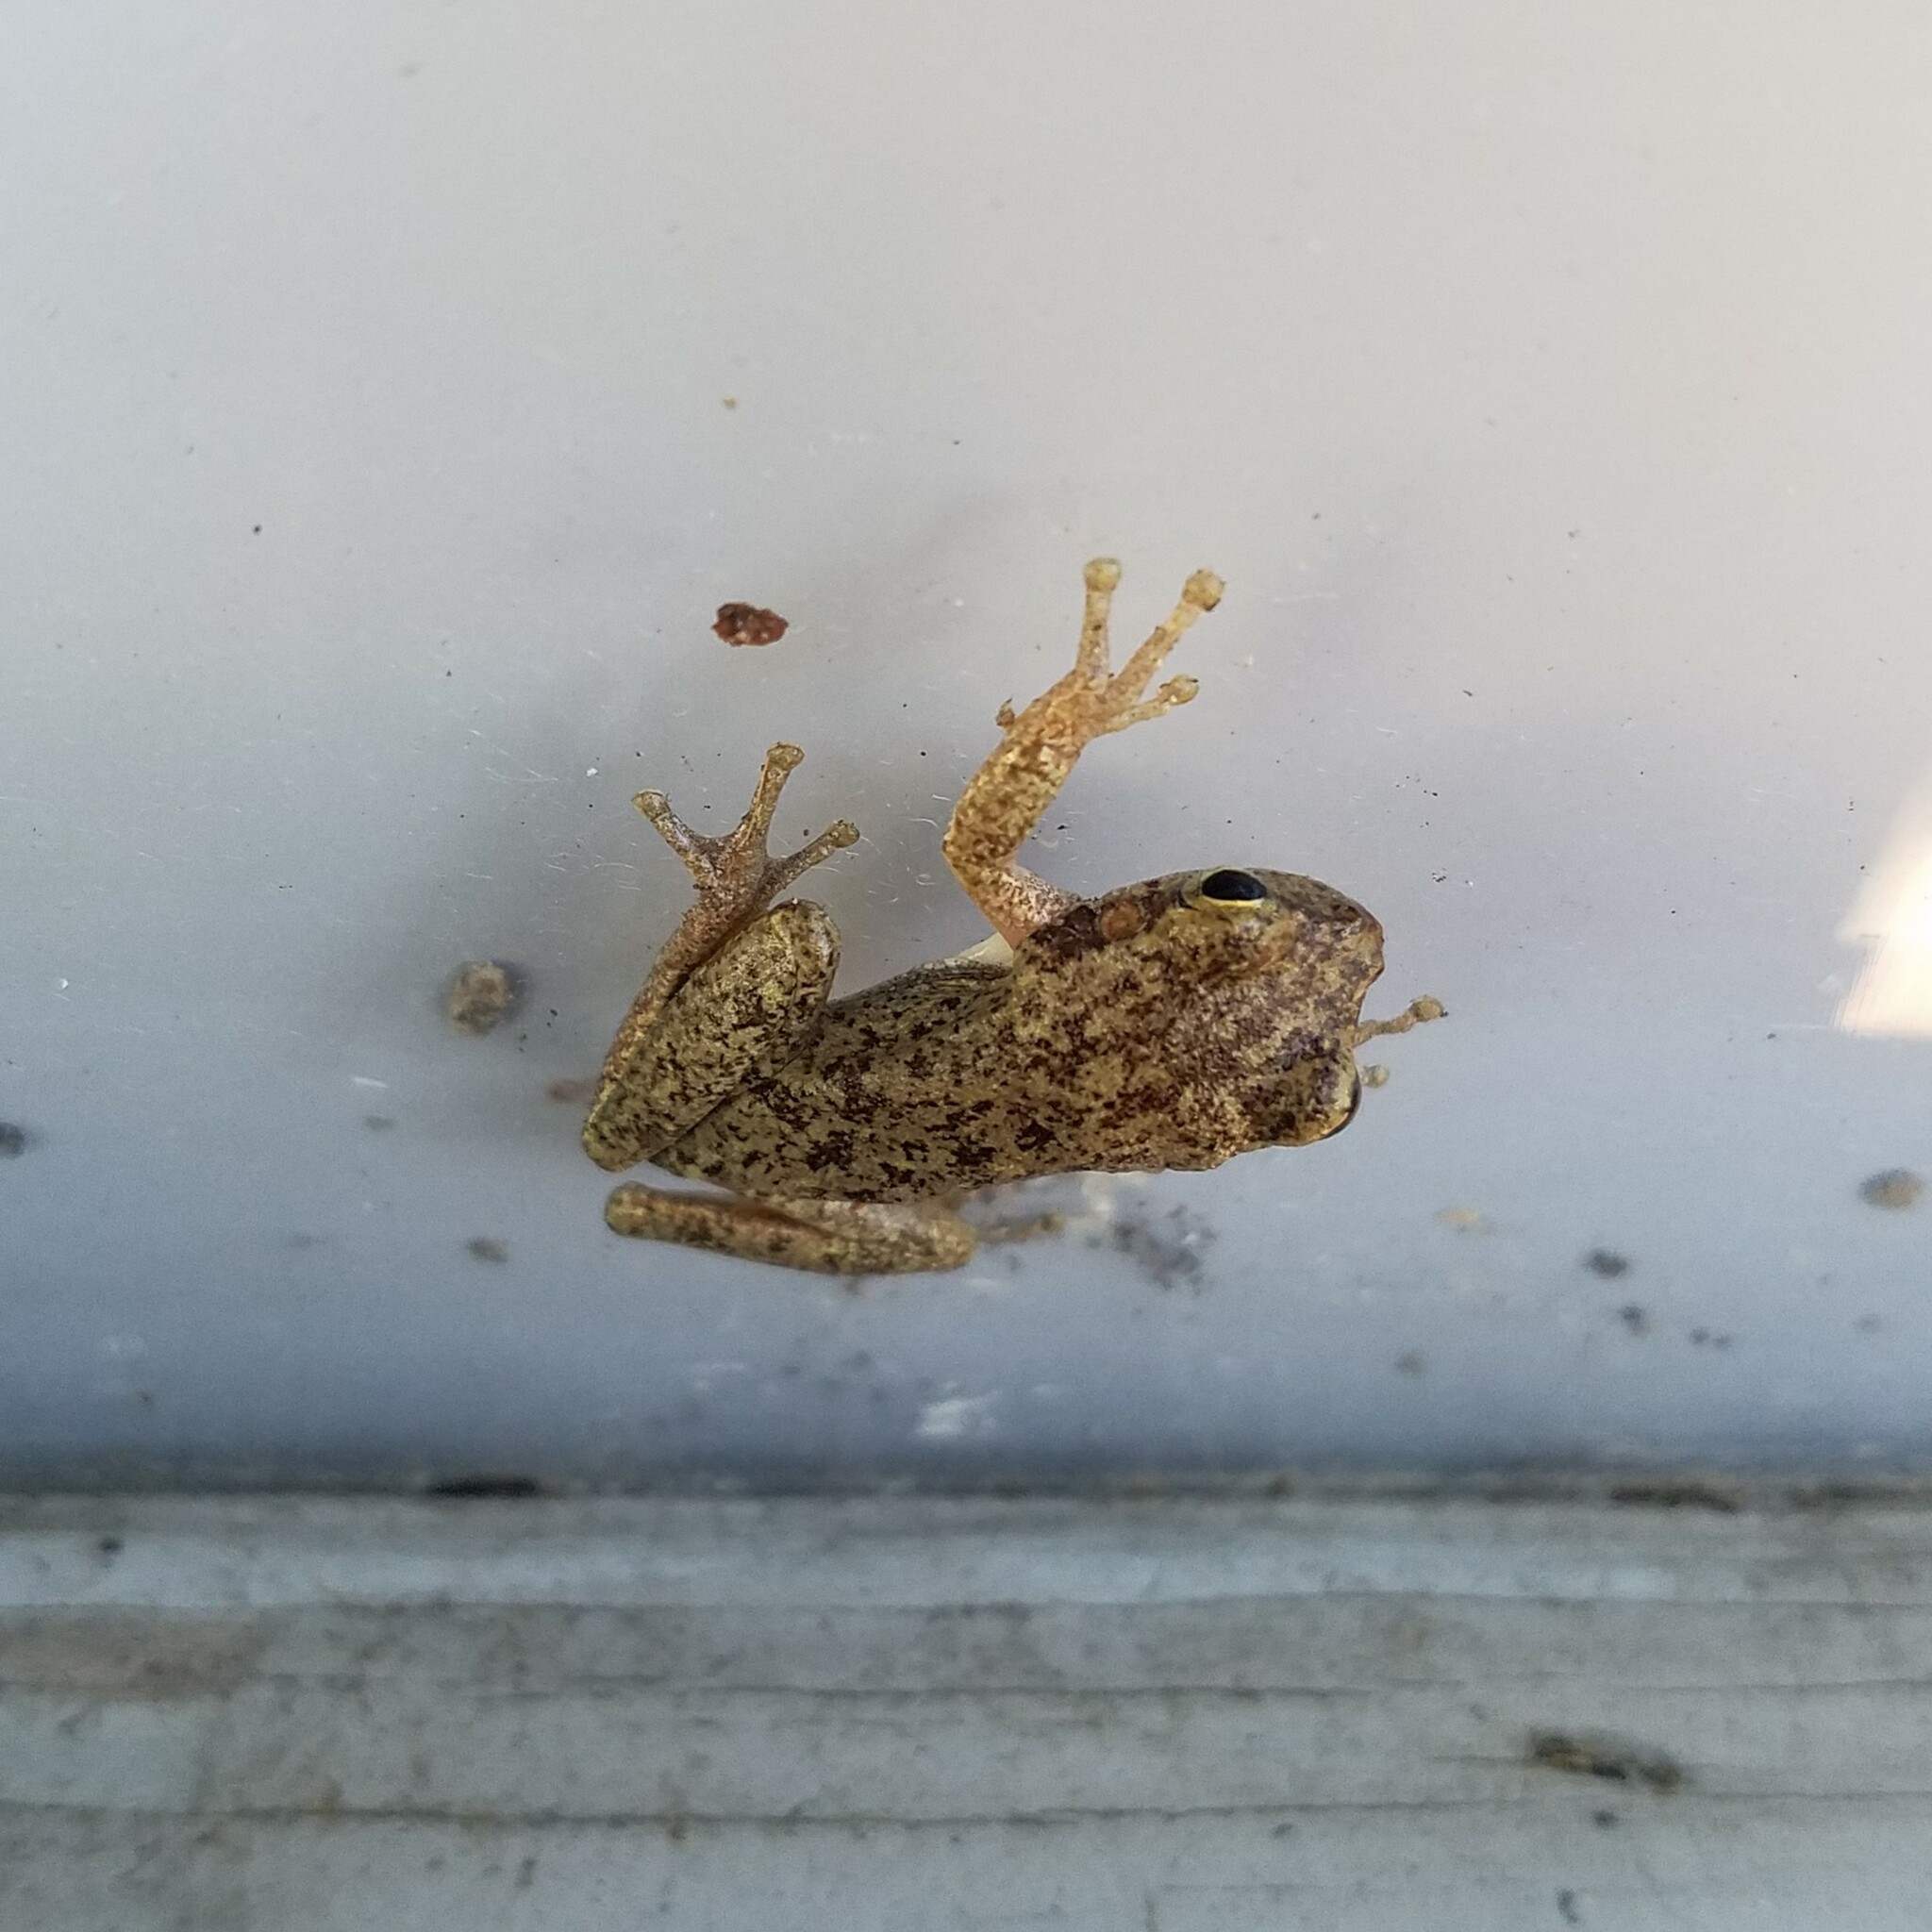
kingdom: Animalia
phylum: Chordata
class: Amphibia
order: Anura
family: Hylidae
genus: Dryophytes
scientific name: Dryophytes squirellus
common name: Squirrel treefrog
